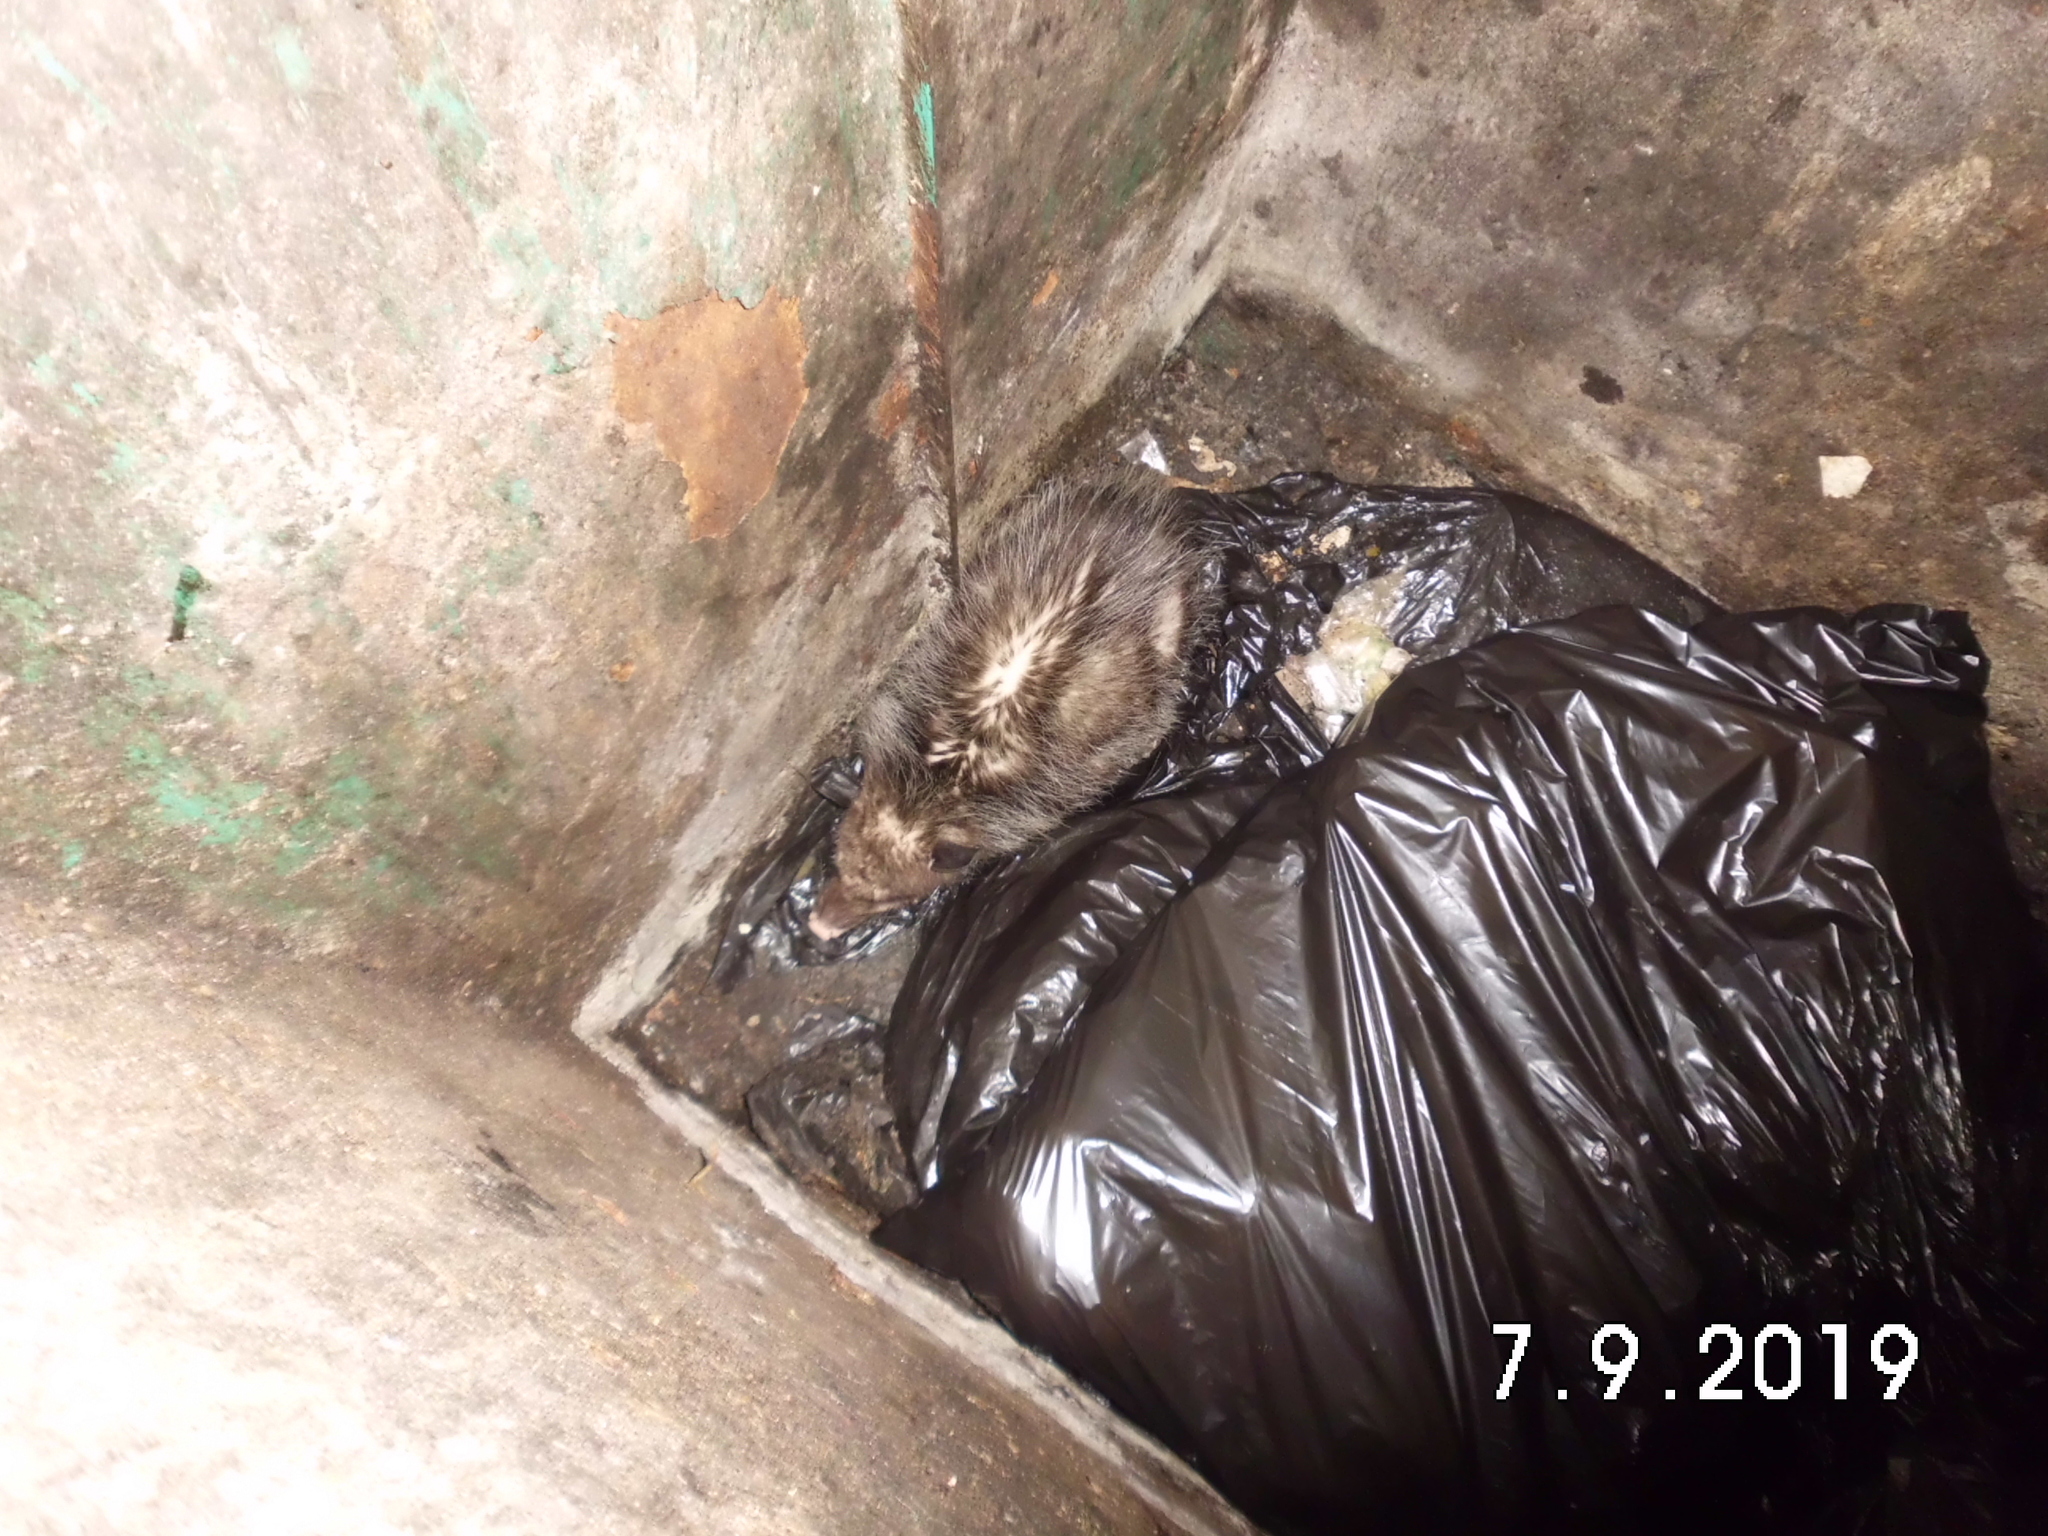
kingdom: Animalia
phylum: Chordata
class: Mammalia
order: Didelphimorphia
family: Didelphidae
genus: Didelphis
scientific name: Didelphis virginiana
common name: Virginia opossum
